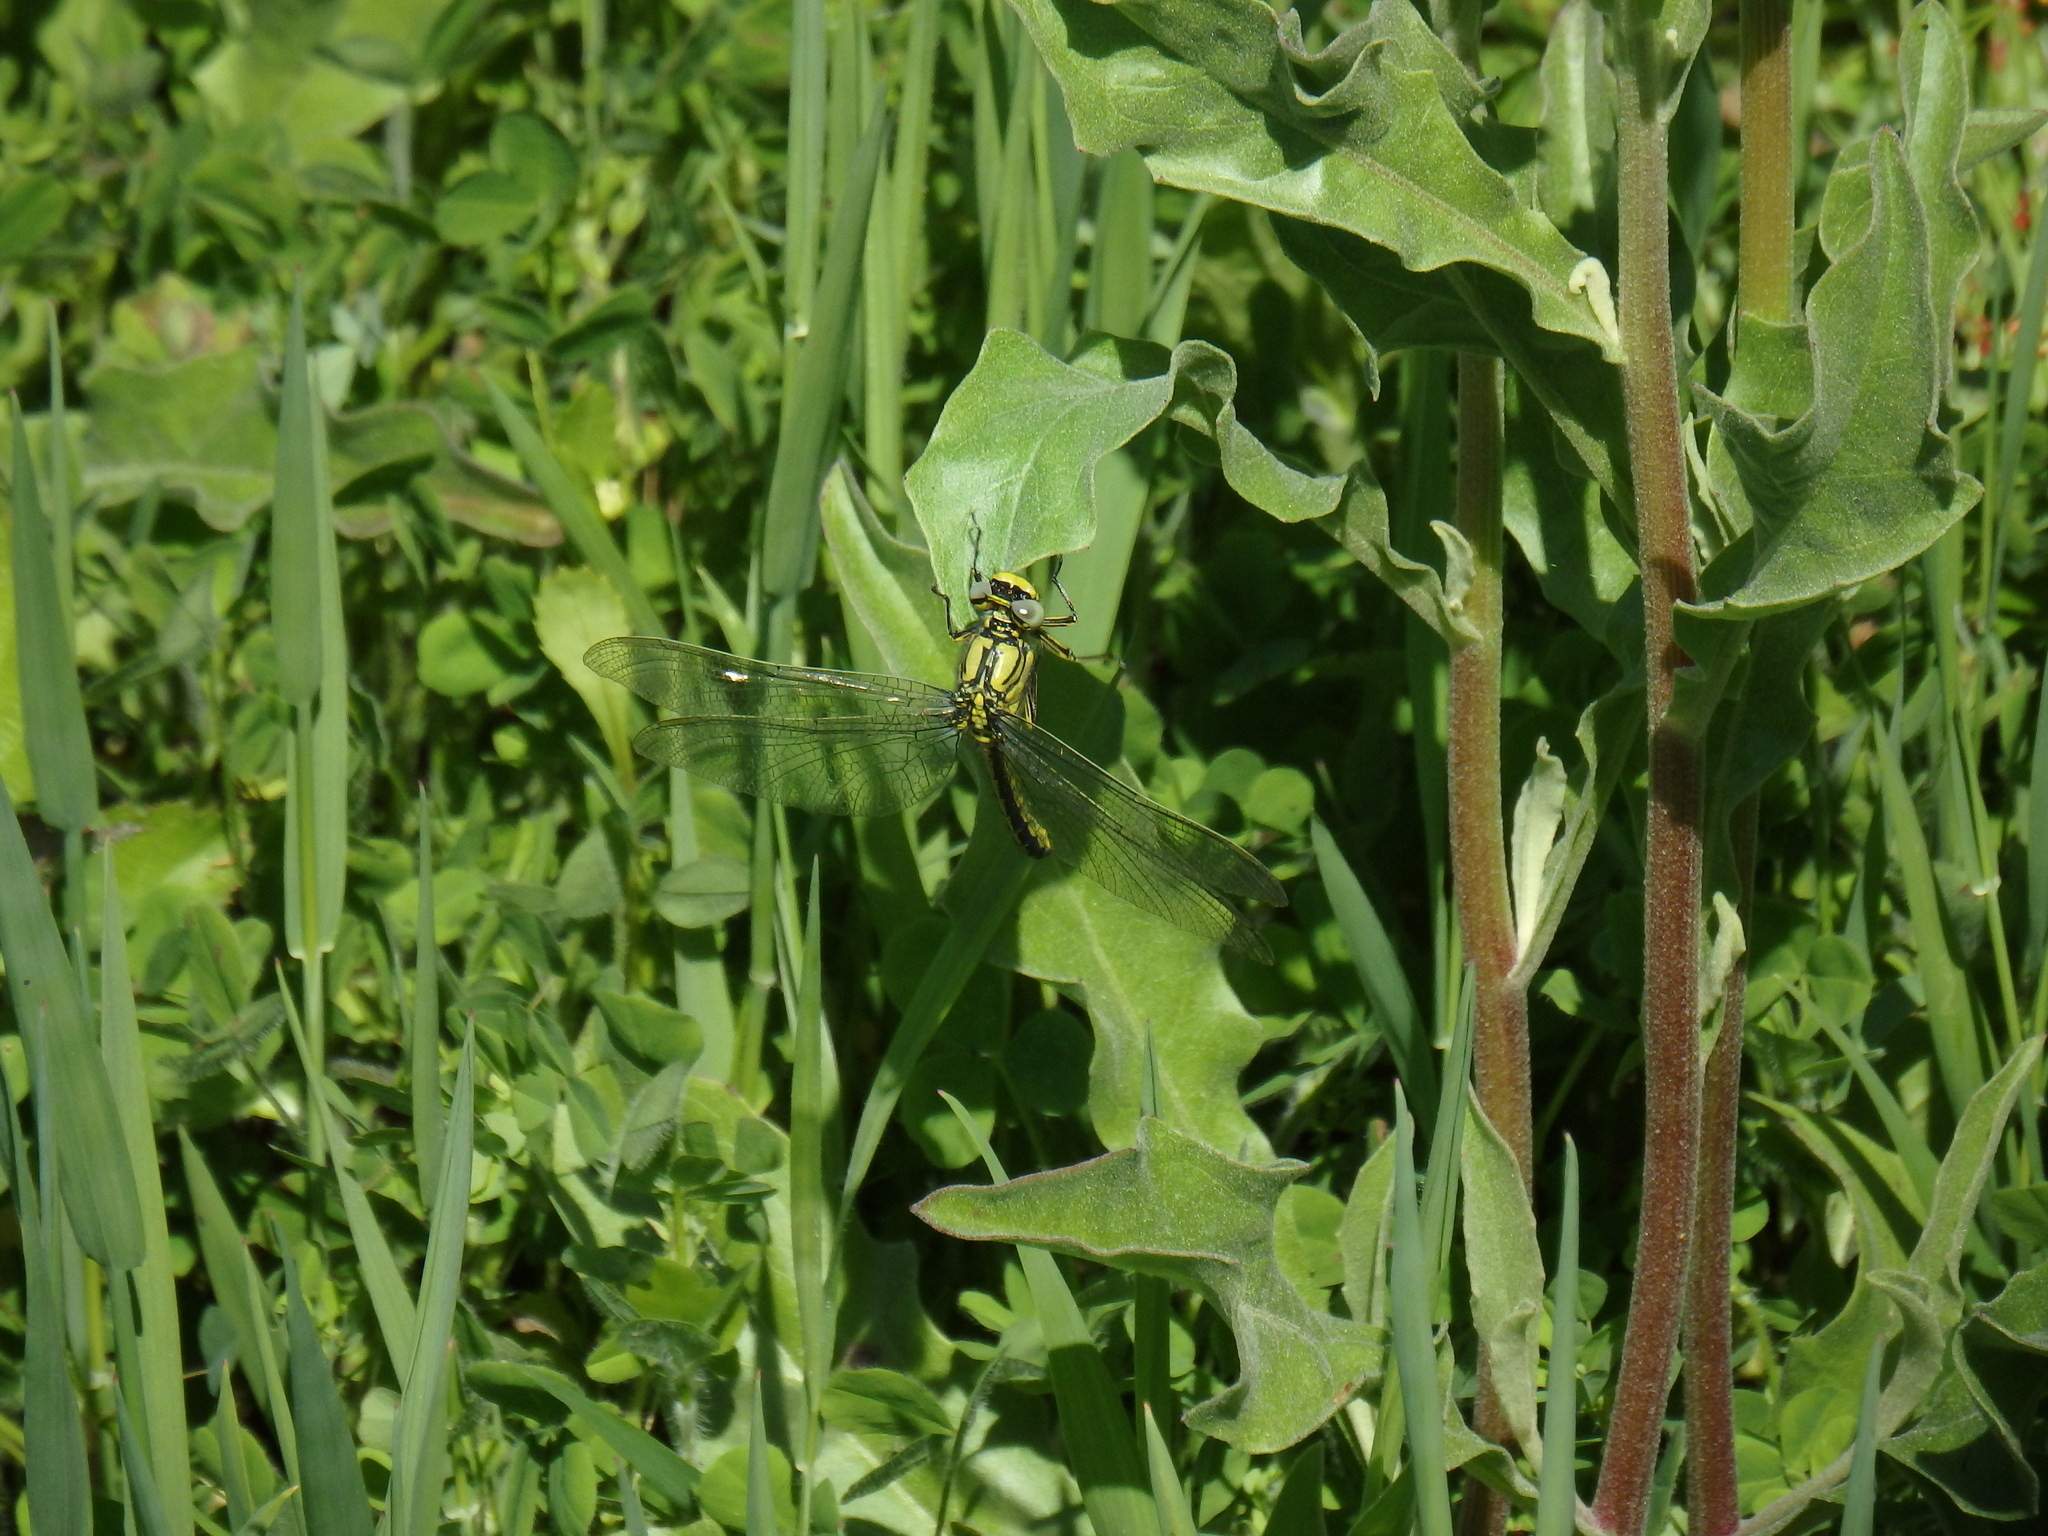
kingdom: Animalia
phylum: Arthropoda
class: Insecta
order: Odonata
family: Gomphidae
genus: Gomphus
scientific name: Gomphus pulchellus
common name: Western clubtail
